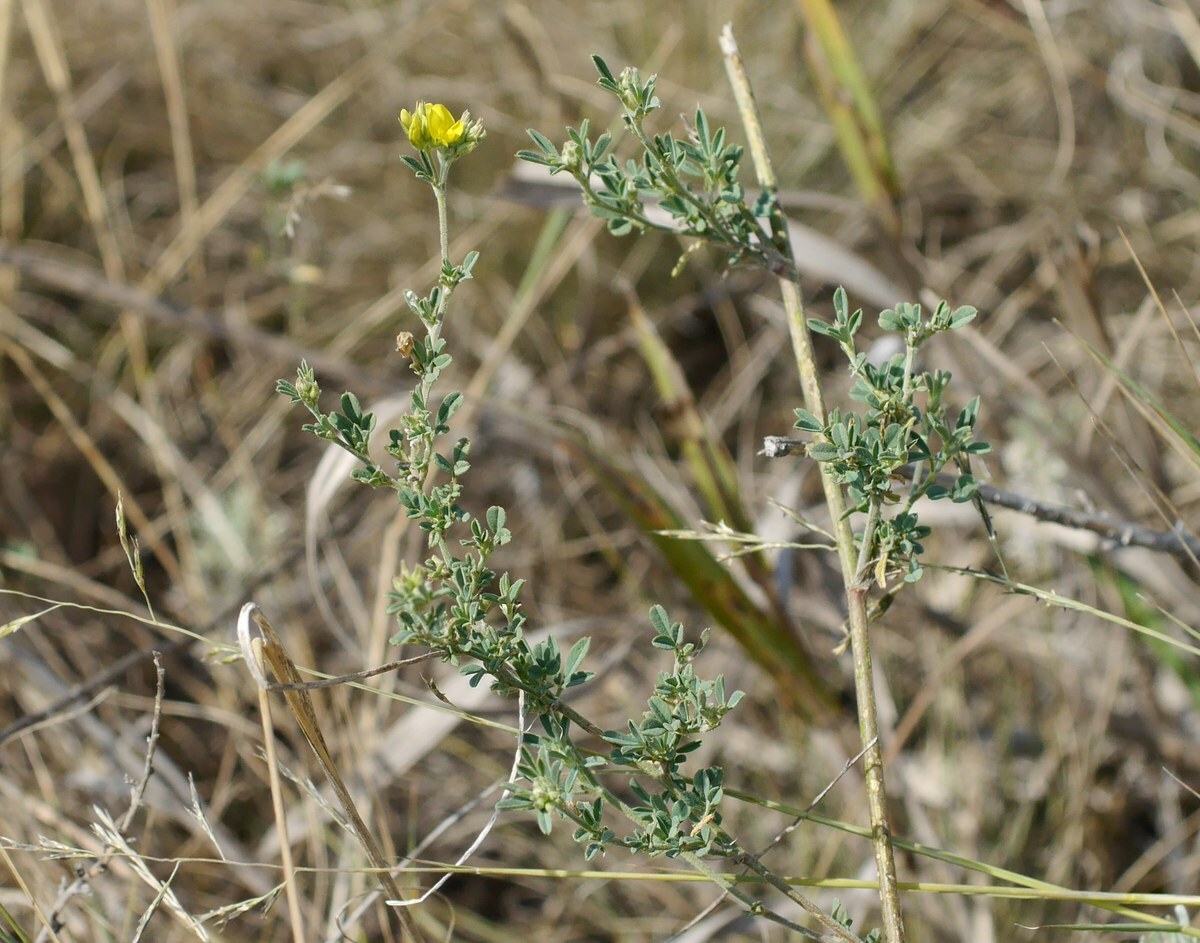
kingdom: Plantae
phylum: Tracheophyta
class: Magnoliopsida
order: Fabales
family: Fabaceae
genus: Medicago
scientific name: Medicago falcata
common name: Sickle medick
